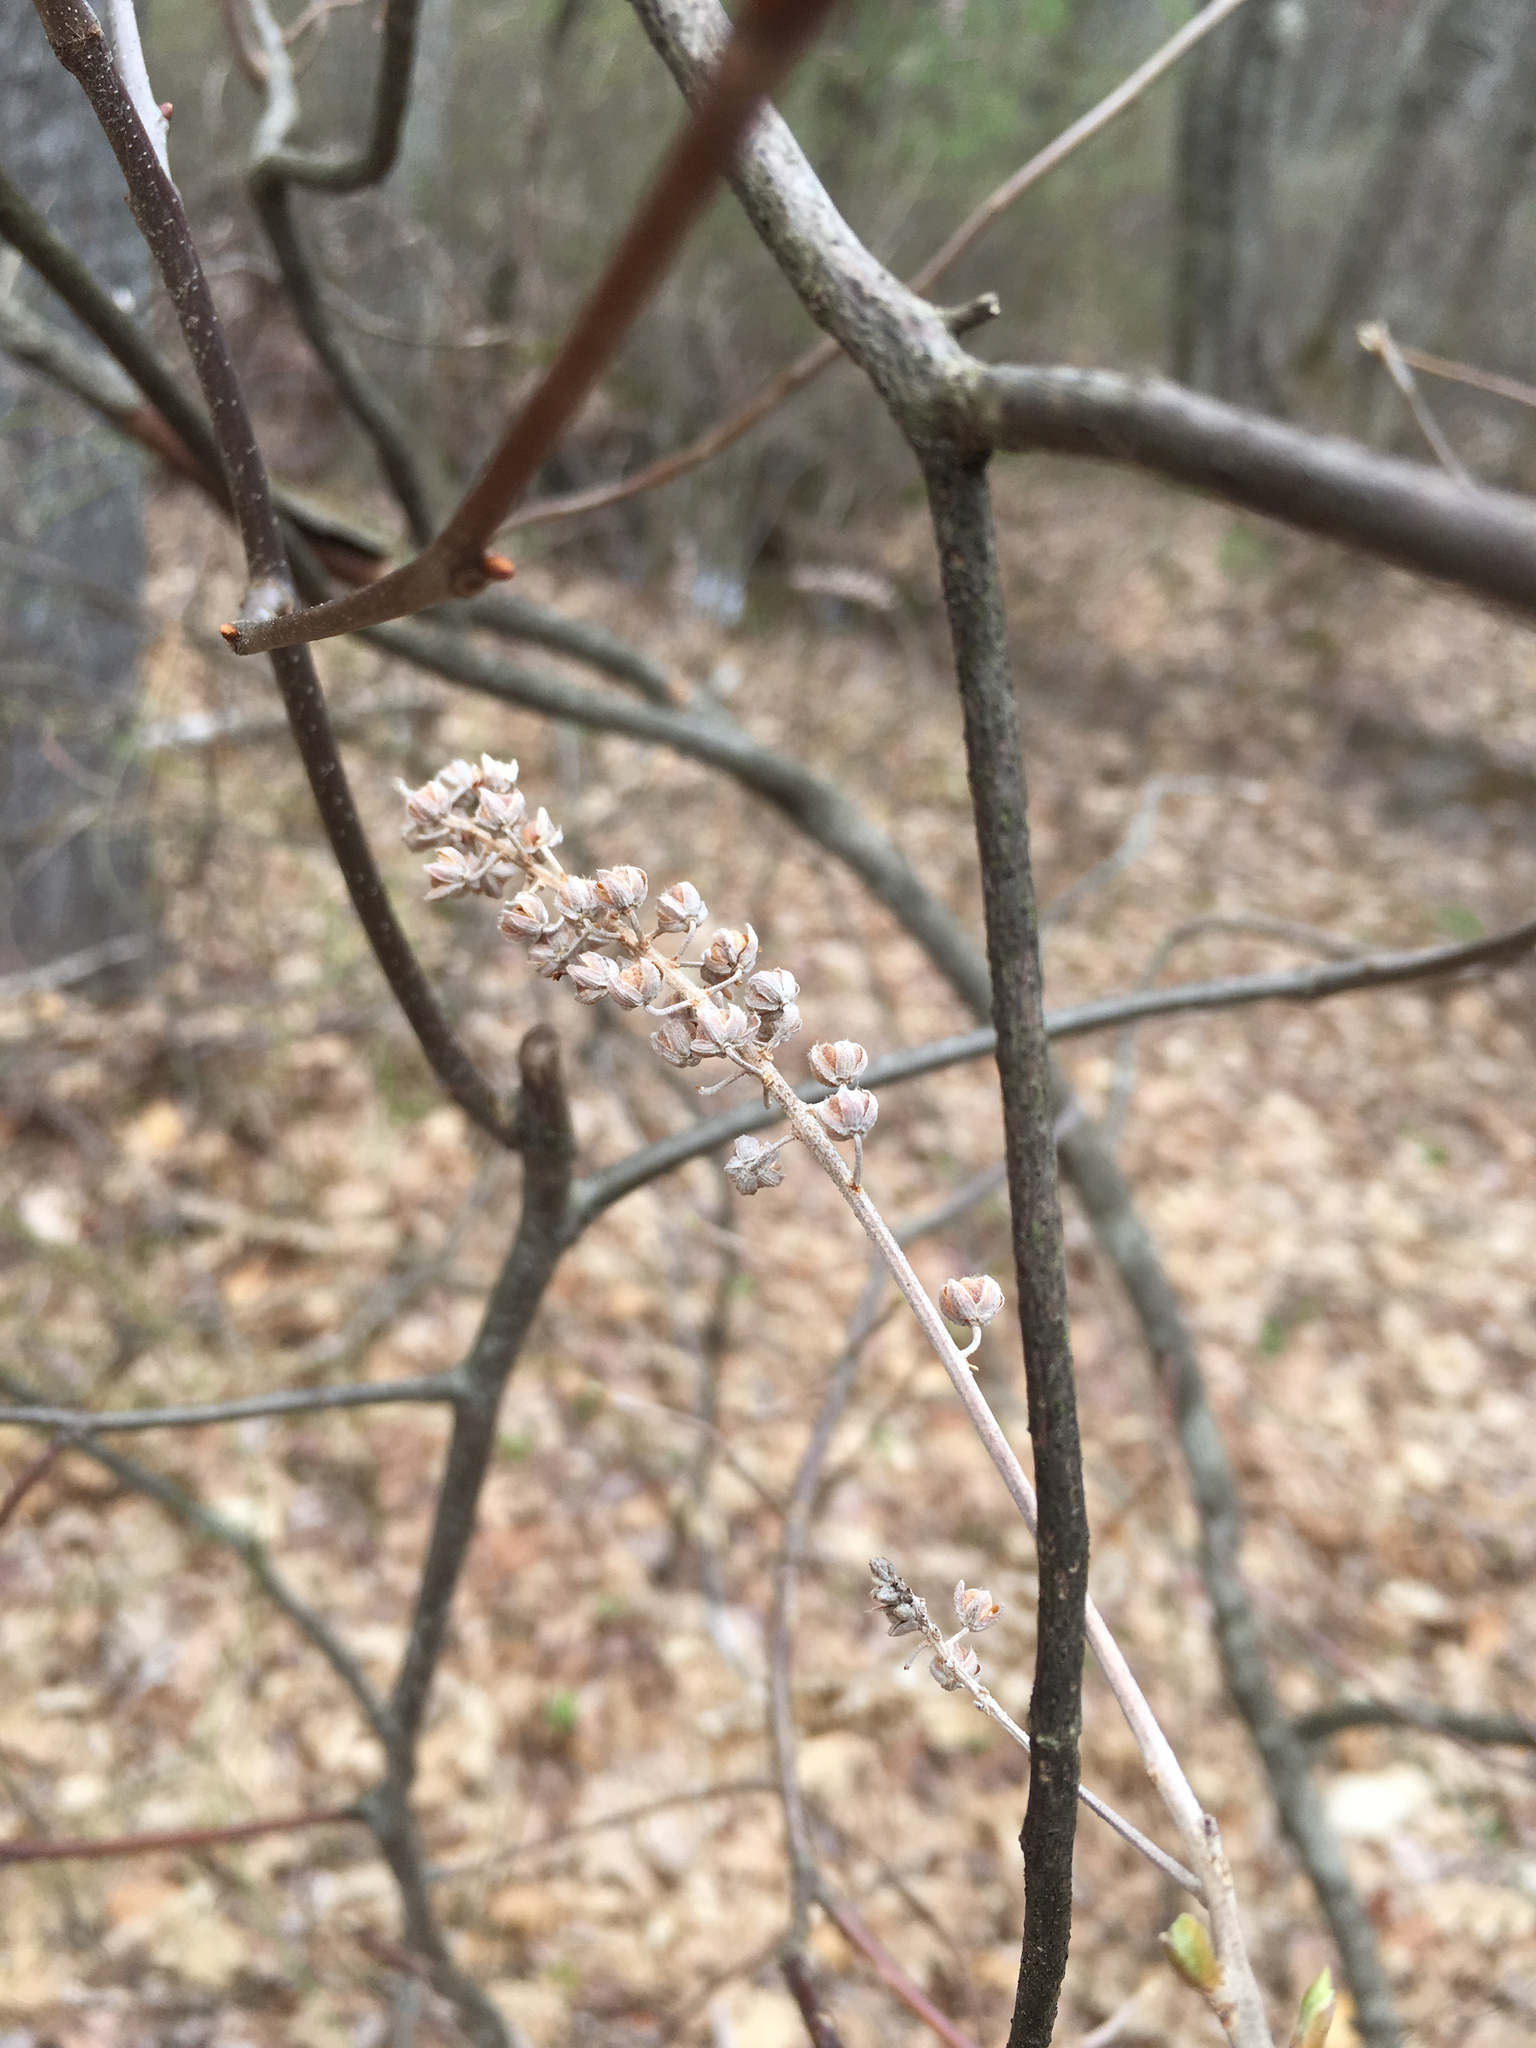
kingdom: Plantae
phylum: Tracheophyta
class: Magnoliopsida
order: Ericales
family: Clethraceae
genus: Clethra
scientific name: Clethra alnifolia
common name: Sweet pepperbush
